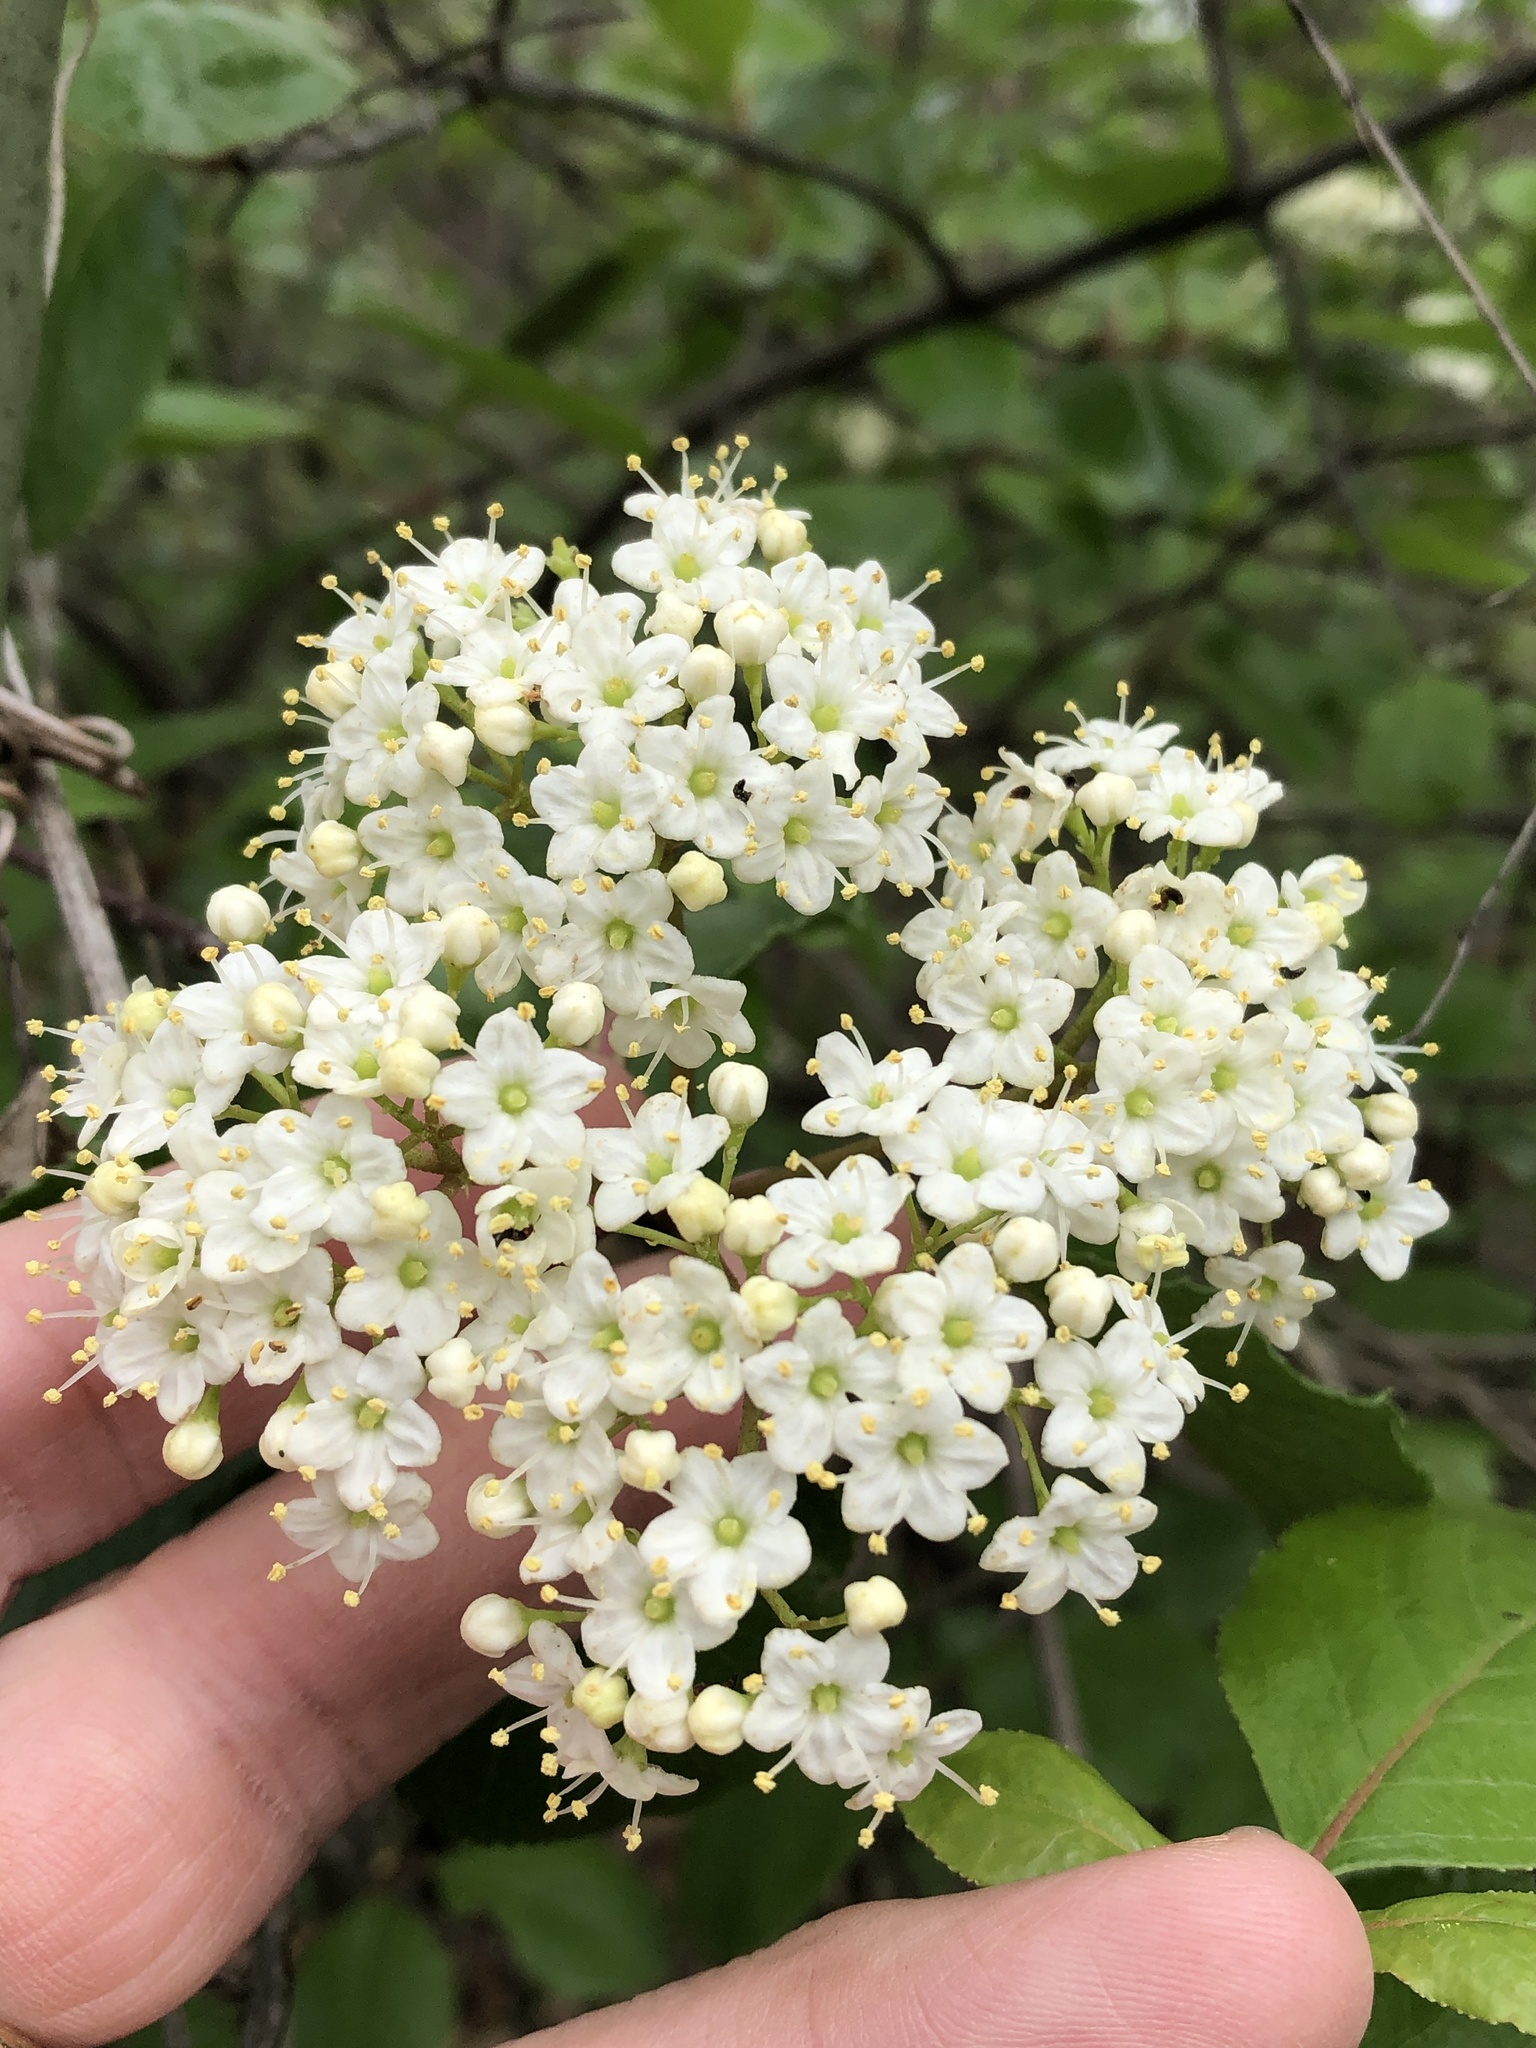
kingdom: Plantae
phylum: Tracheophyta
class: Magnoliopsida
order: Dipsacales
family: Viburnaceae
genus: Viburnum
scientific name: Viburnum rufidulum
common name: Blue haw
